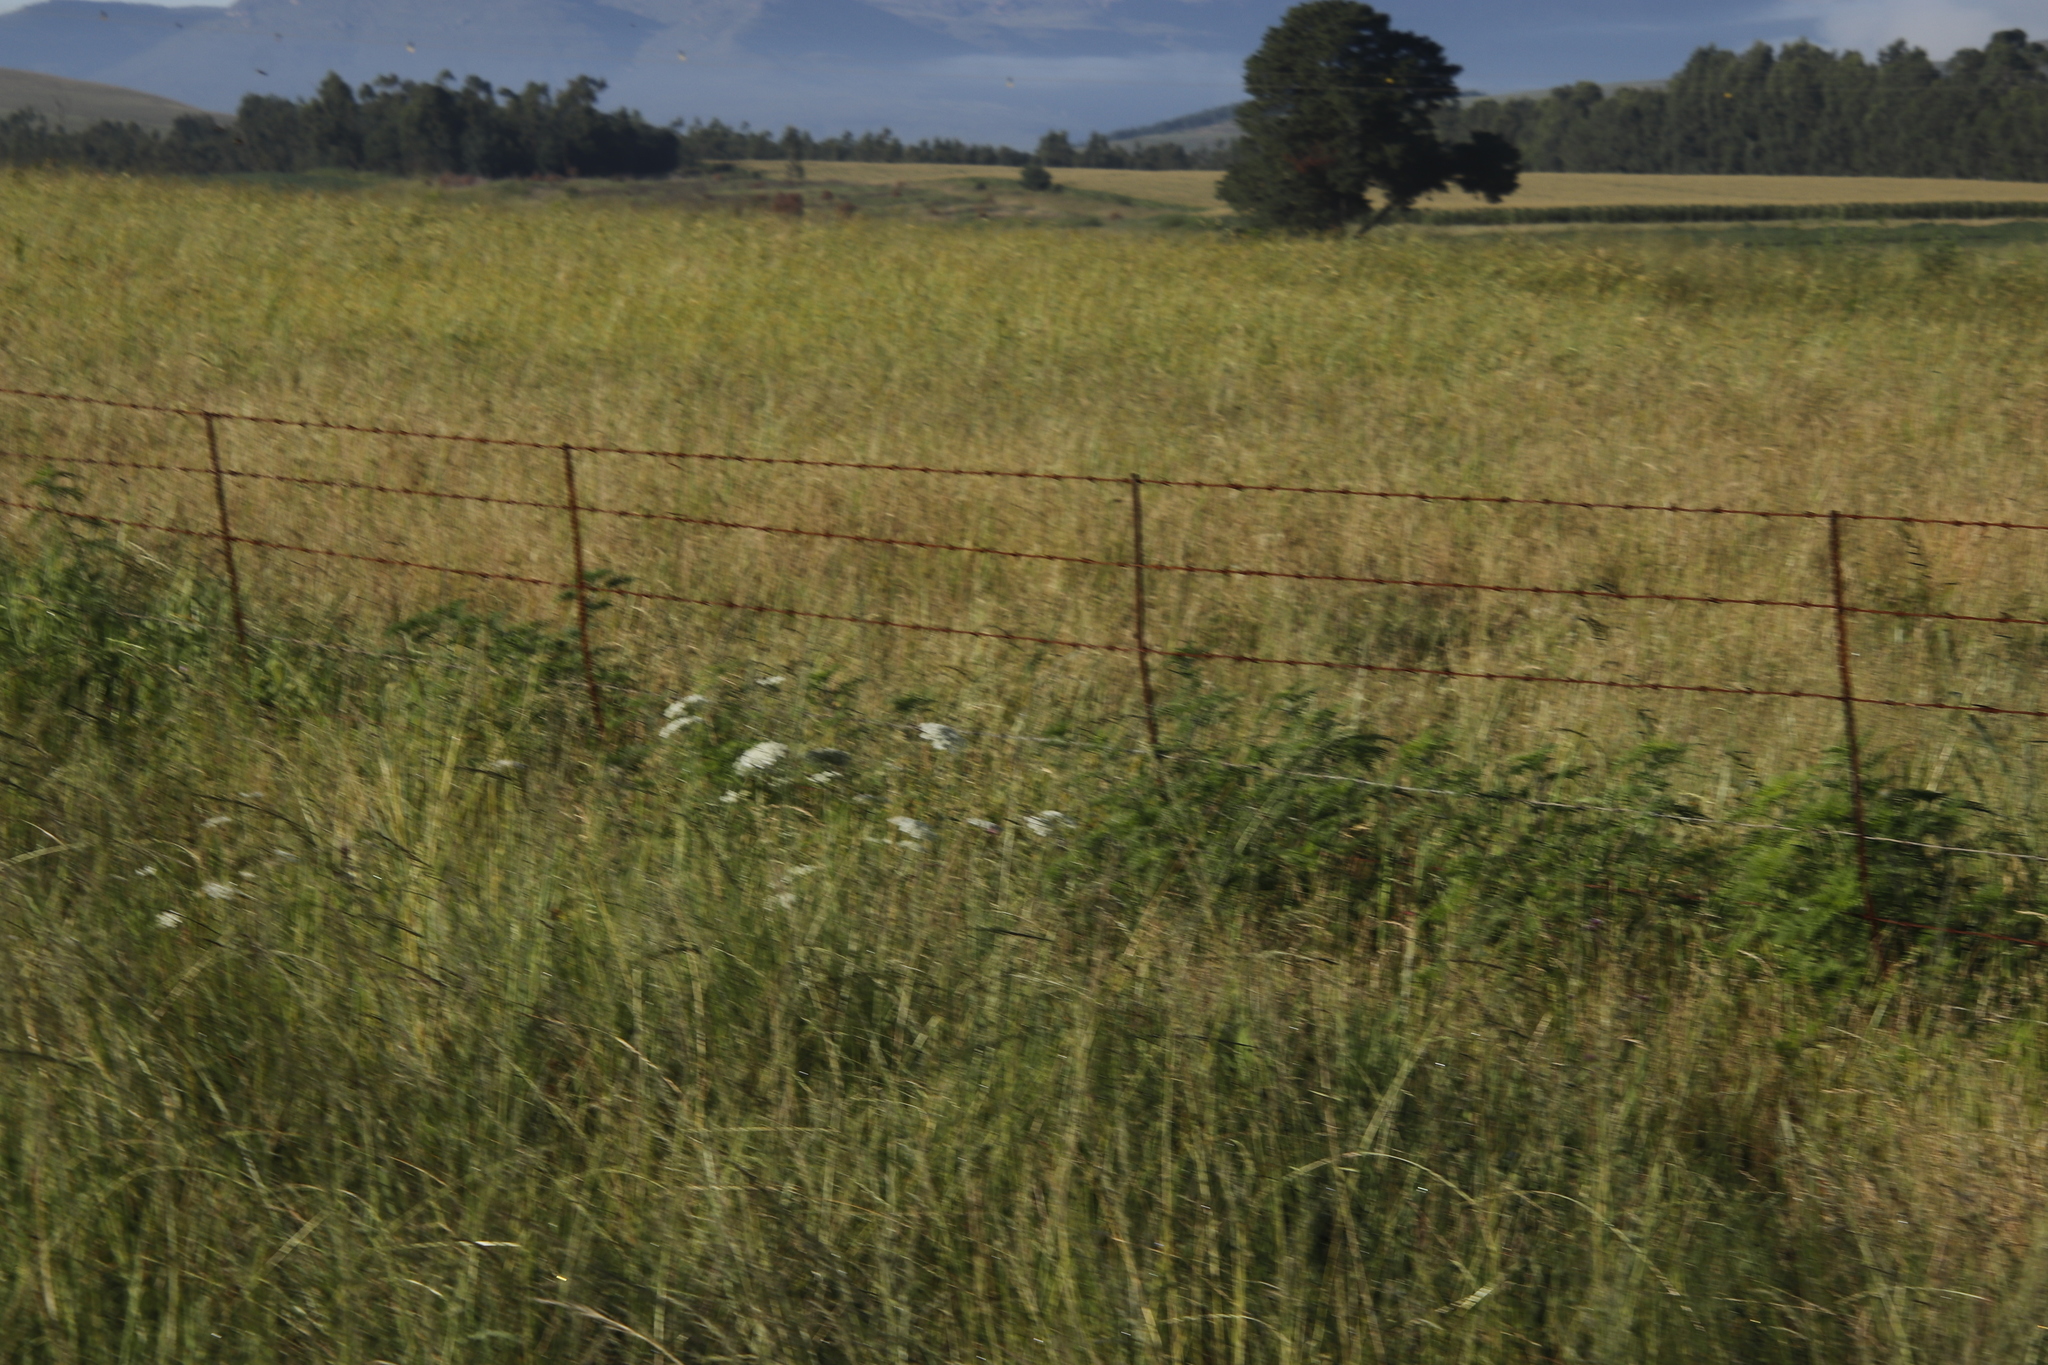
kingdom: Plantae
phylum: Tracheophyta
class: Magnoliopsida
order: Apiales
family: Apiaceae
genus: Daucus
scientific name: Daucus carota
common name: Wild carrot
